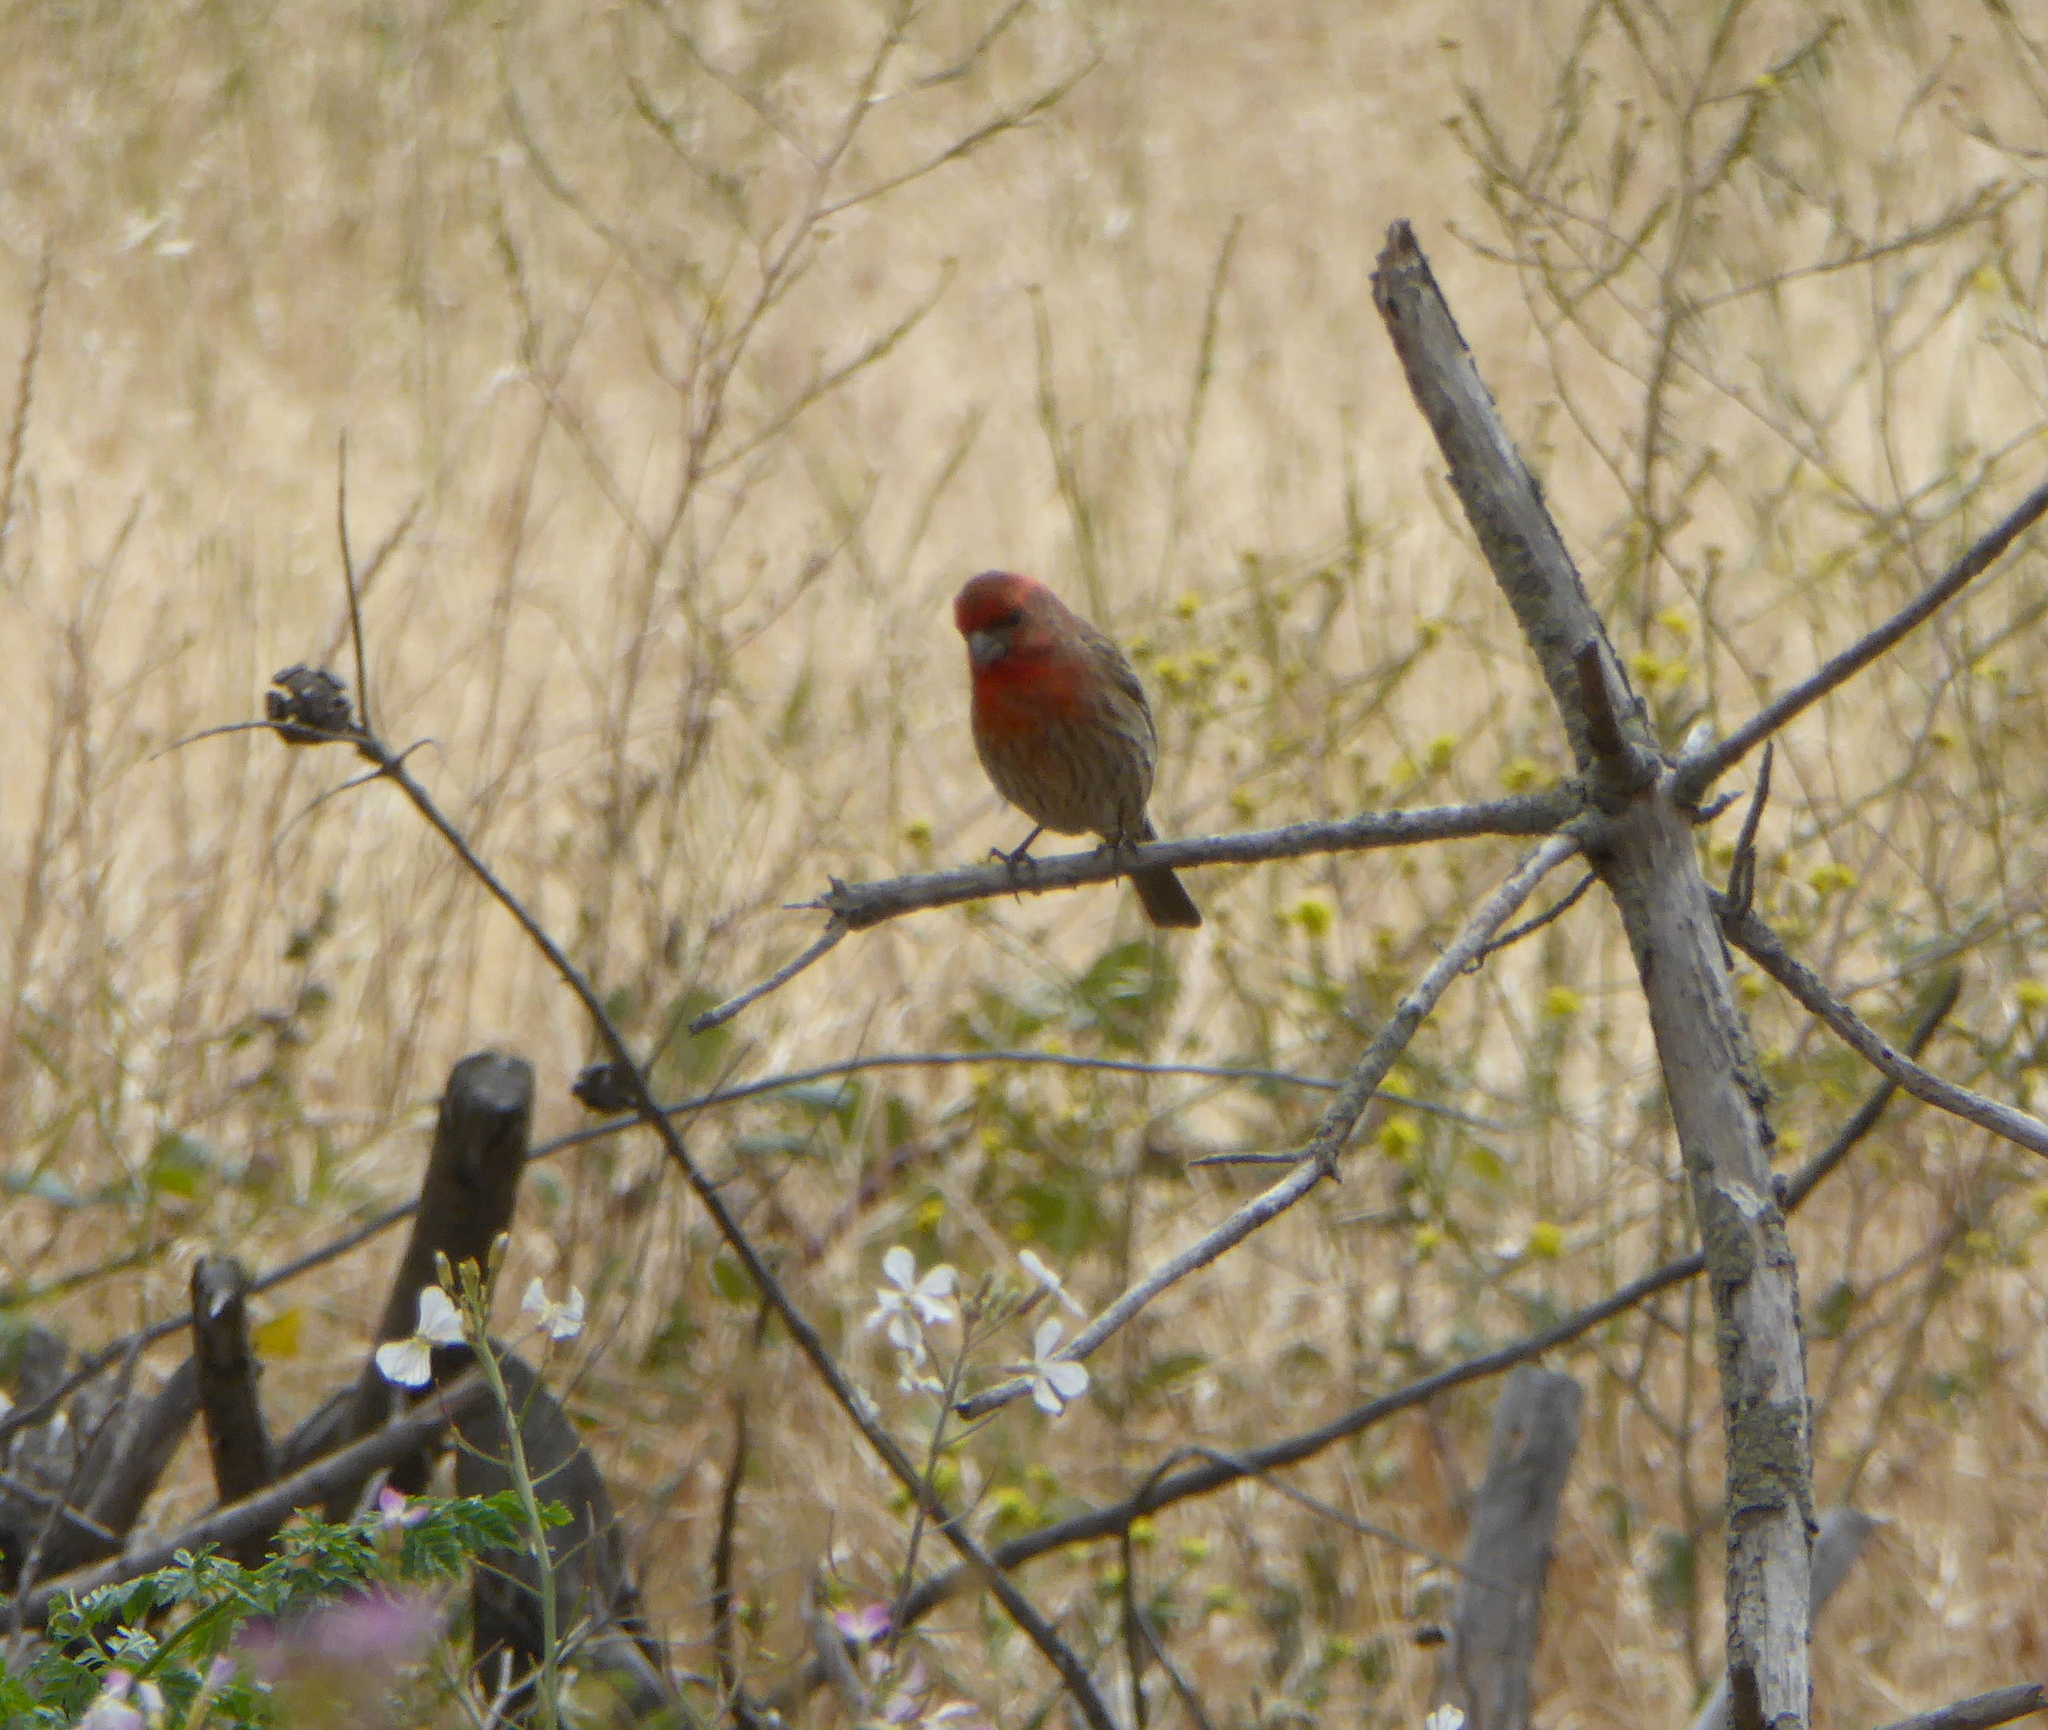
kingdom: Animalia
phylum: Chordata
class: Aves
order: Passeriformes
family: Fringillidae
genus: Haemorhous
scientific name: Haemorhous mexicanus
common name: House finch
